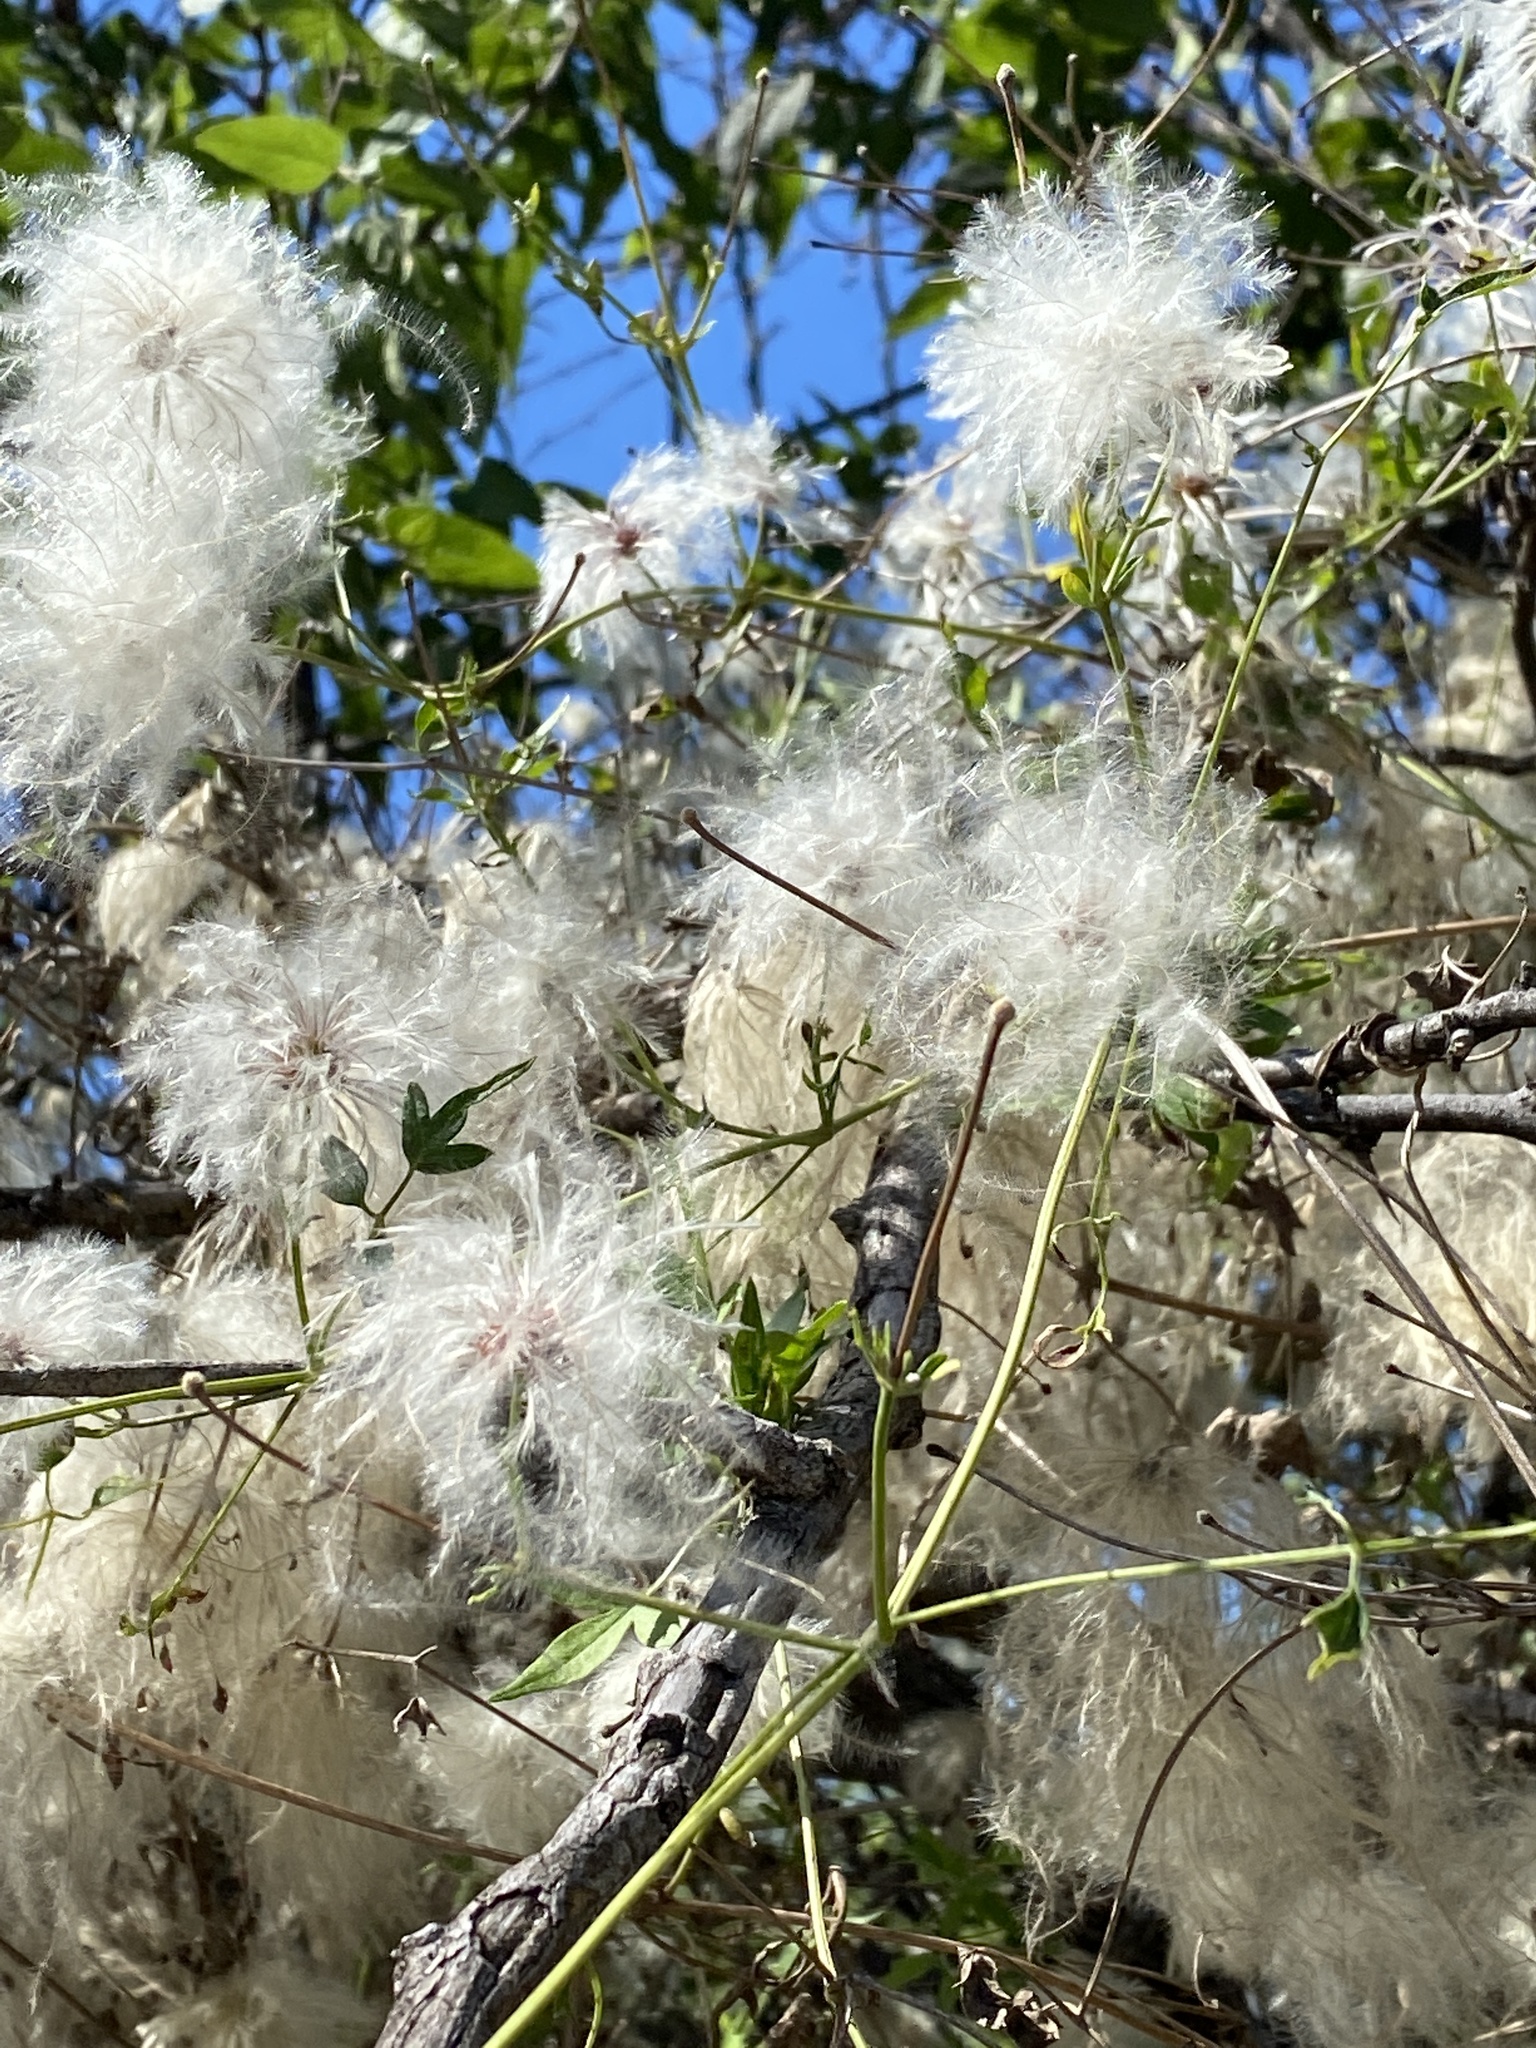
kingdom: Plantae
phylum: Tracheophyta
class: Magnoliopsida
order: Ranunculales
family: Ranunculaceae
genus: Clematis
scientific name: Clematis drummondii
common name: Texas virgin's bower
